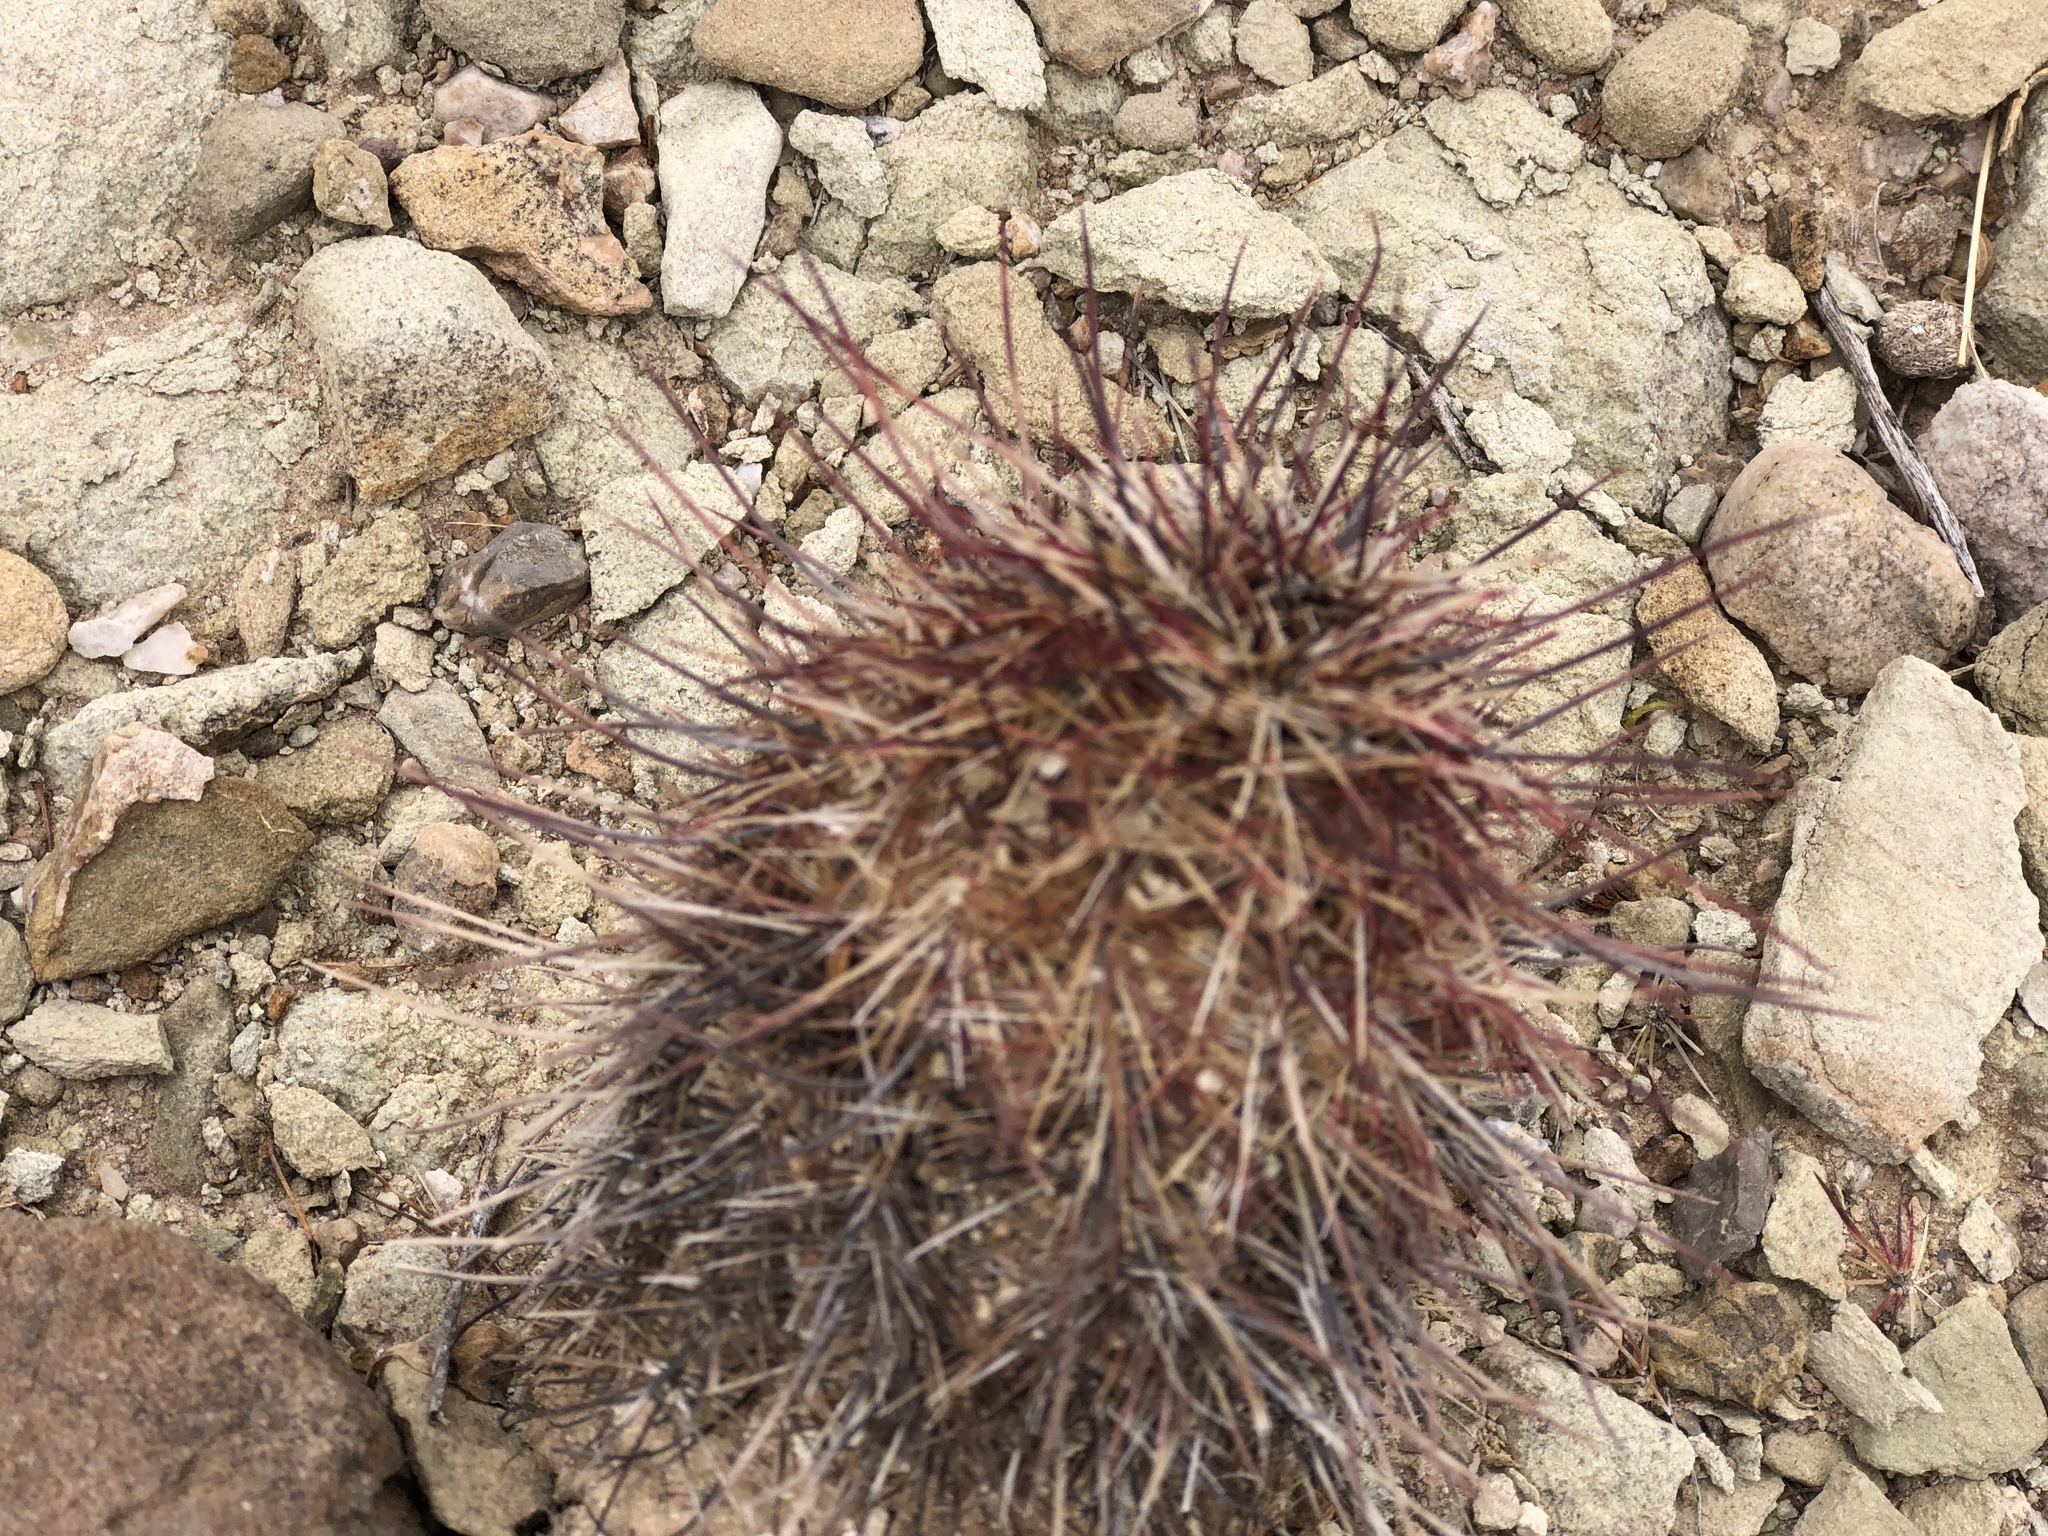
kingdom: Plantae
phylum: Tracheophyta
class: Magnoliopsida
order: Caryophyllales
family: Cactaceae
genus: Echinocereus
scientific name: Echinocereus viridiflorus
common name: Nylon hedgehog cactus
